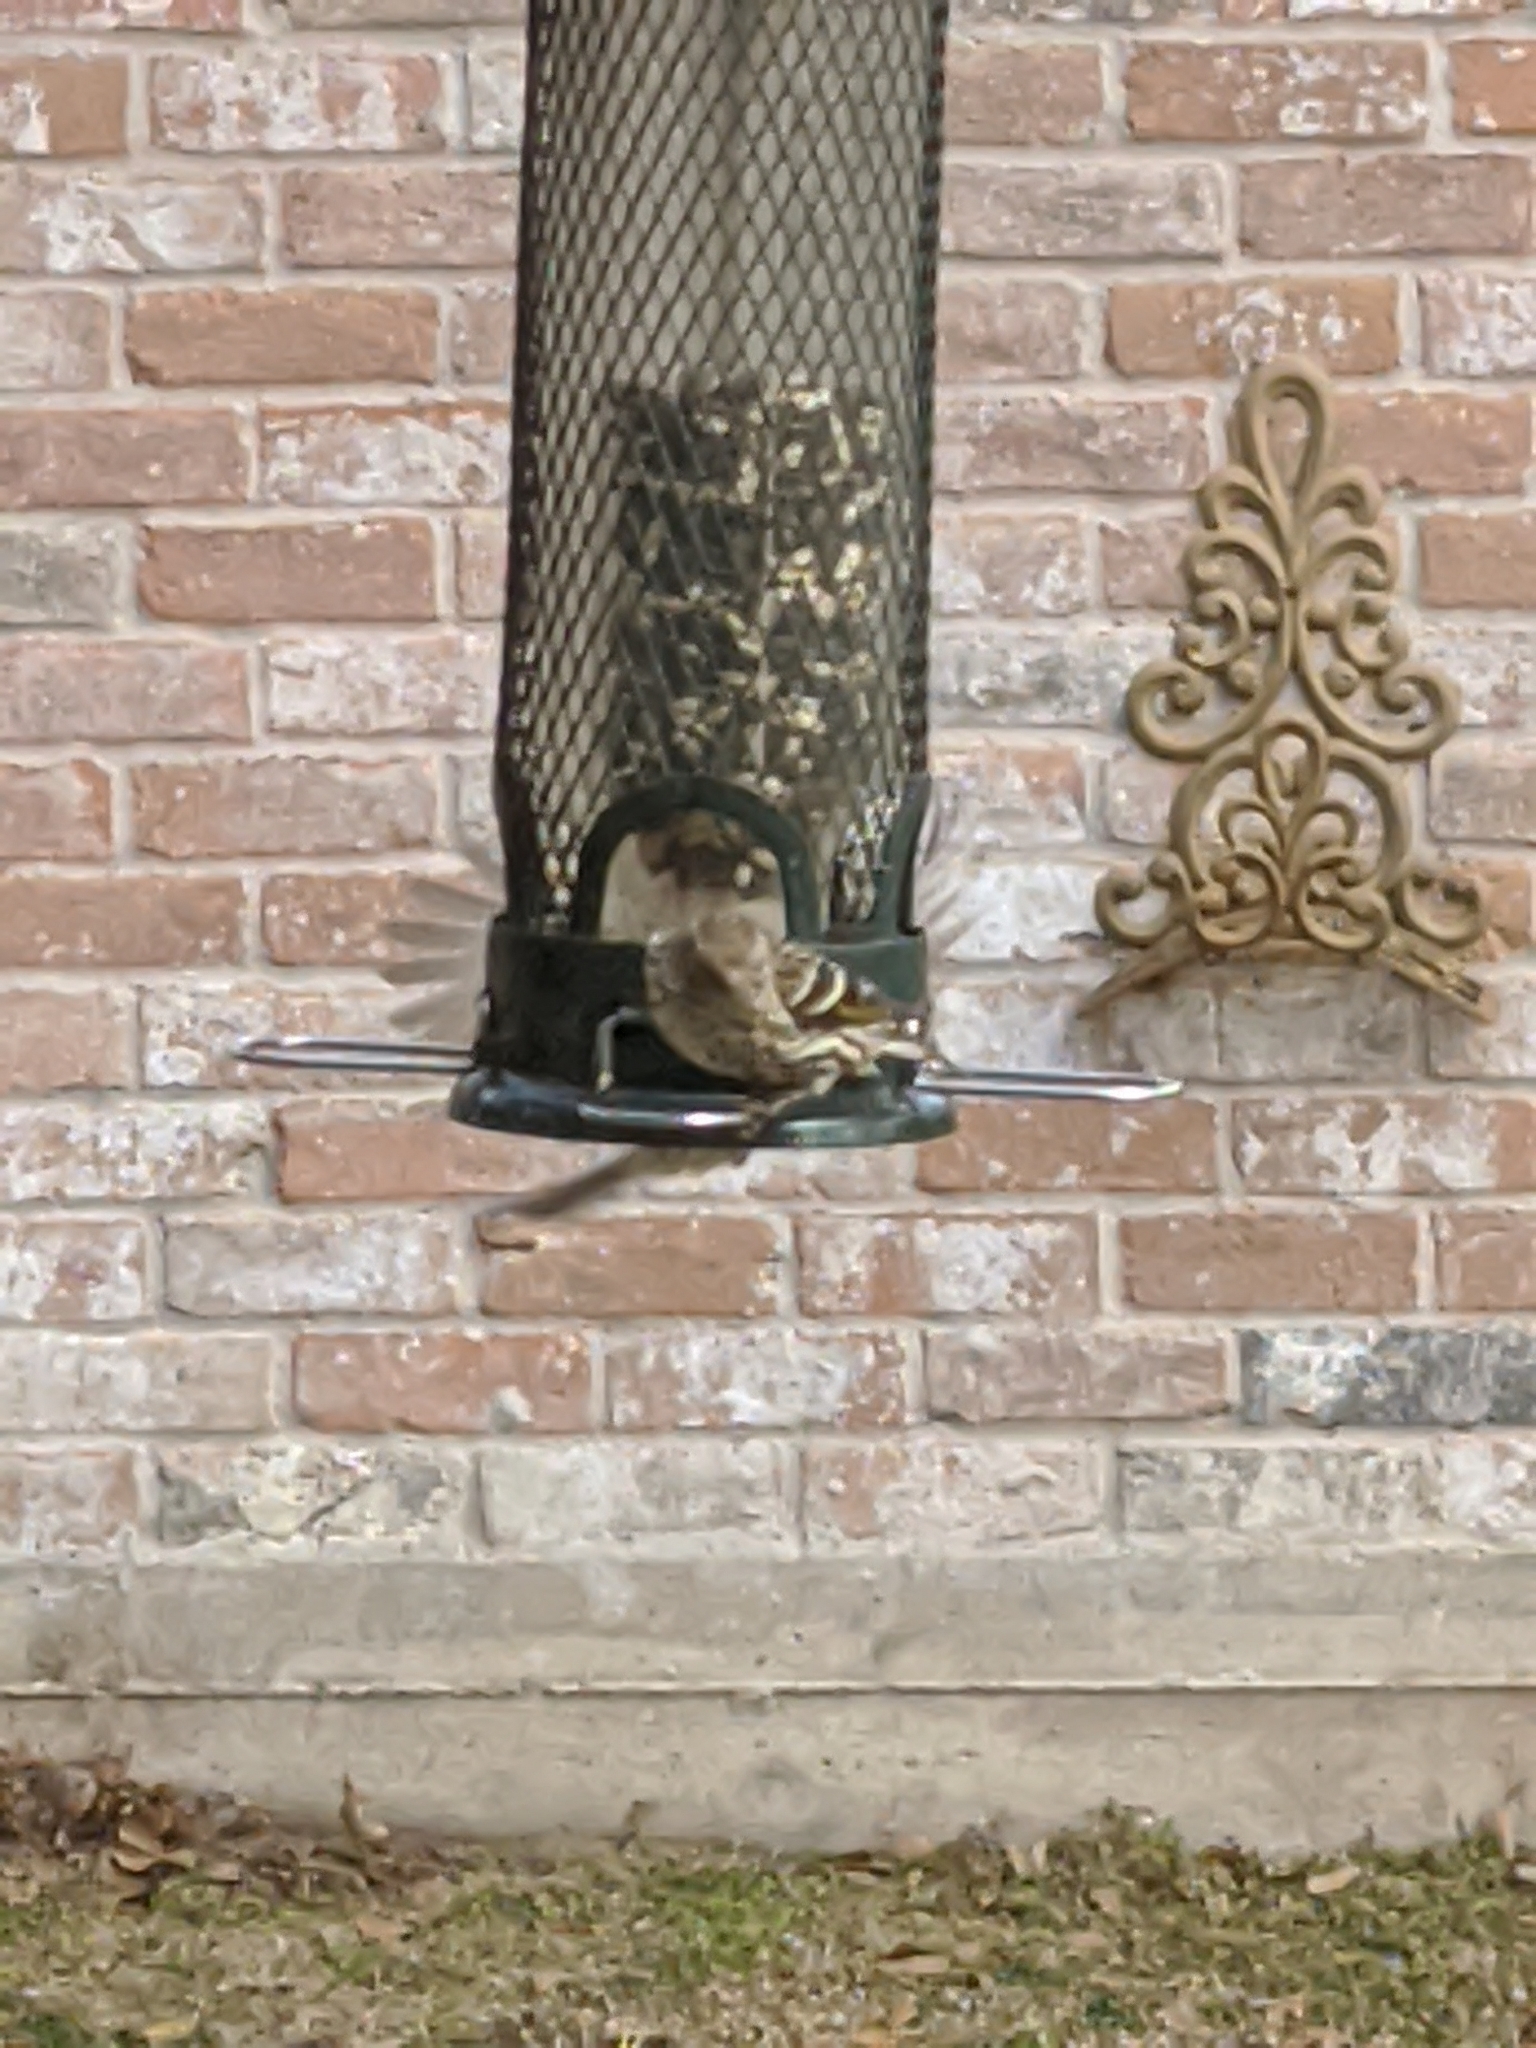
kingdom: Animalia
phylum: Chordata
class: Aves
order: Passeriformes
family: Fringillidae
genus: Spinus
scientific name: Spinus pinus
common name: Pine siskin
